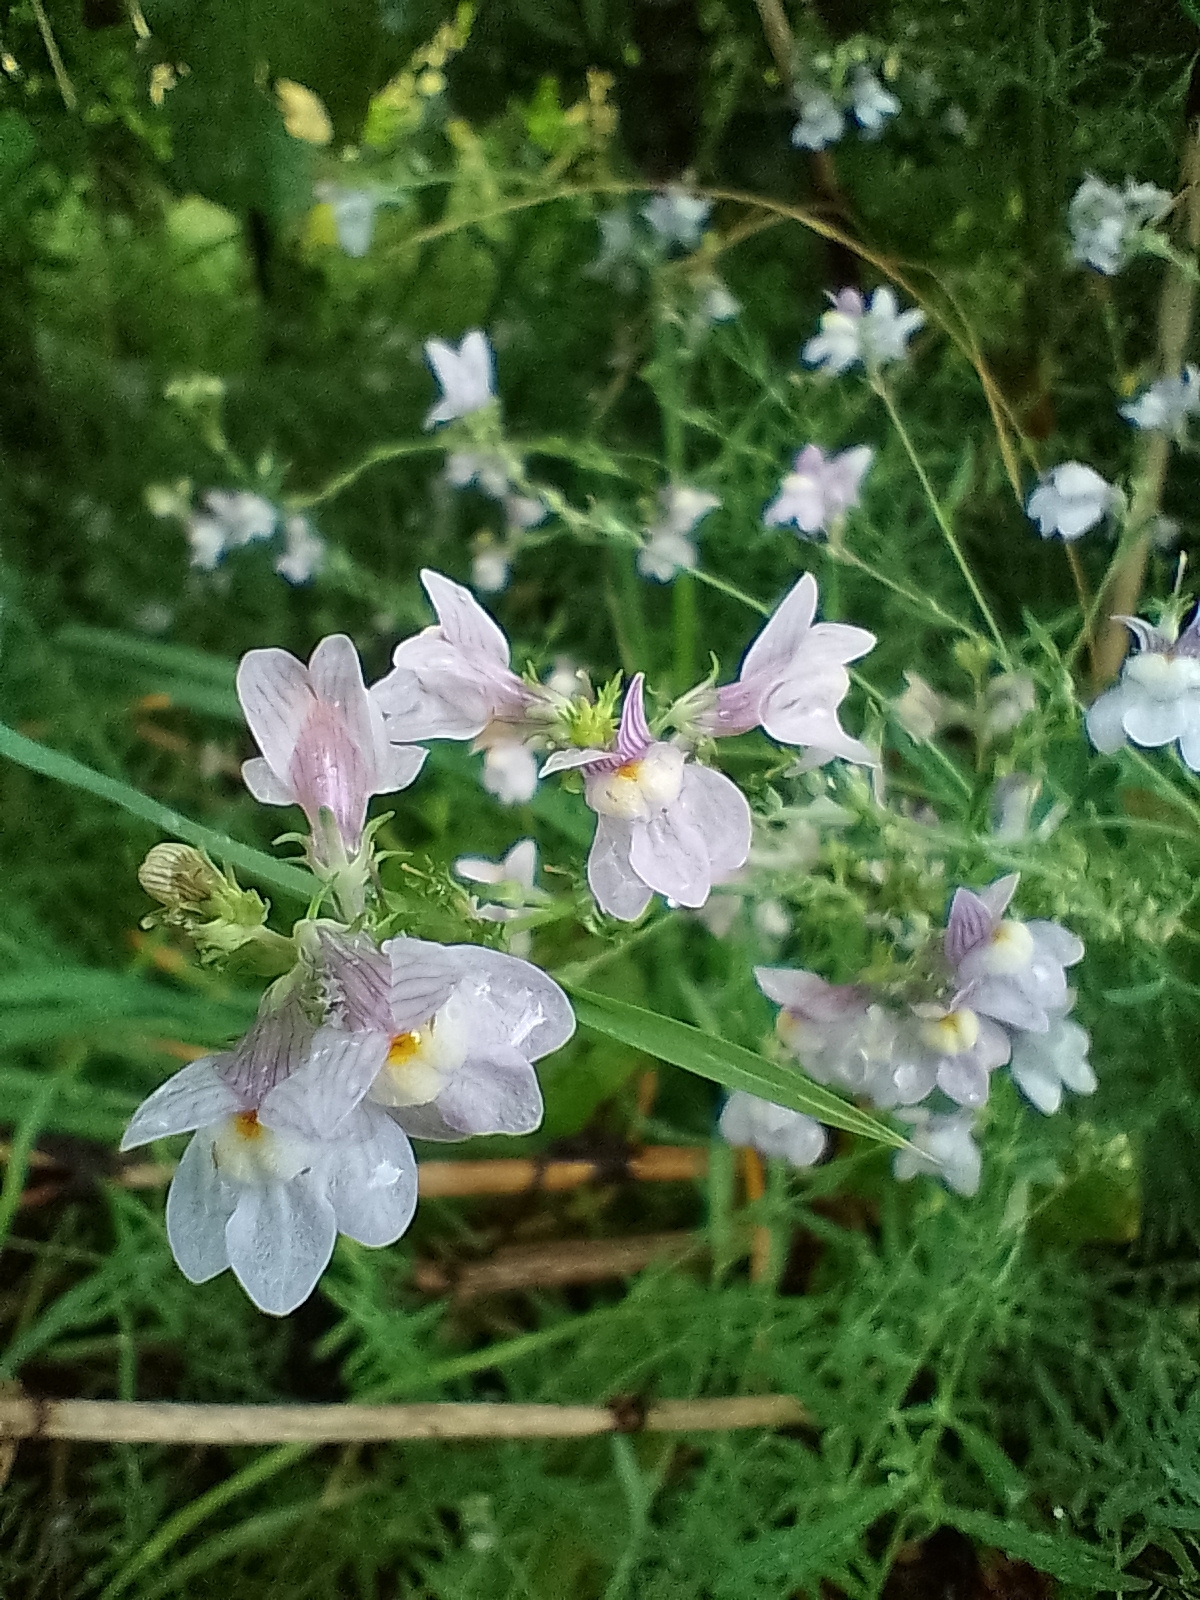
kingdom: Plantae
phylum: Tracheophyta
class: Magnoliopsida
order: Lamiales
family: Plantaginaceae
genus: Linaria
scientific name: Linaria repens
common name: Pale toadflax
